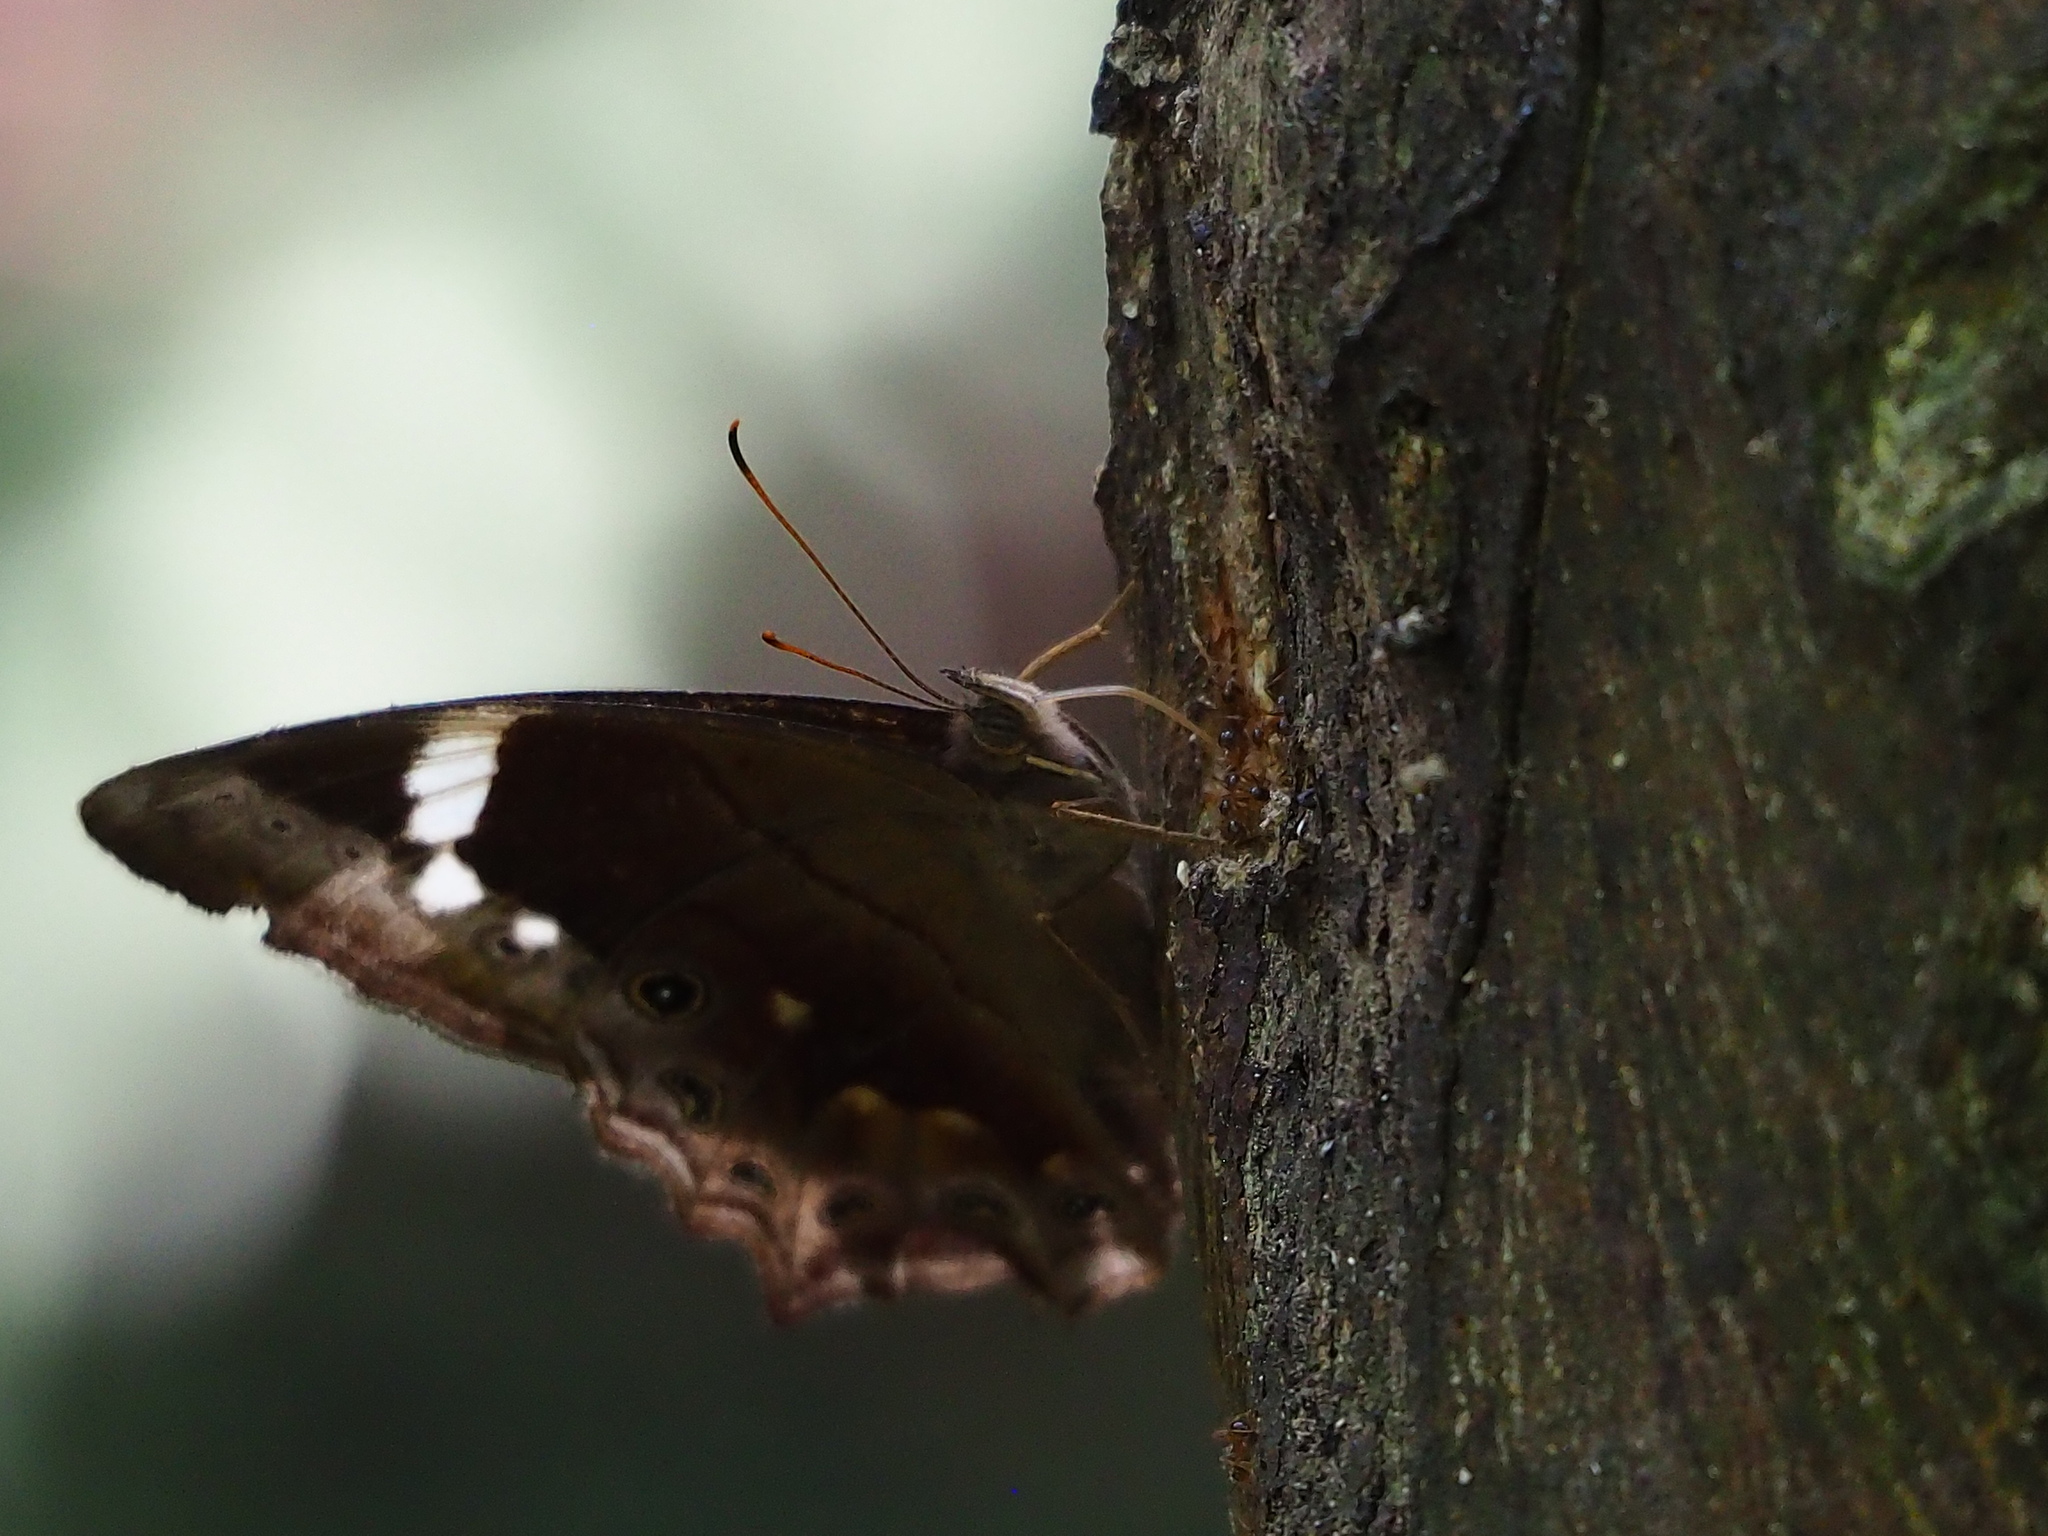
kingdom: Animalia
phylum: Arthropoda
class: Insecta
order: Lepidoptera
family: Nymphalidae
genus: Lethe
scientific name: Lethe chandica
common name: Angled red forester
